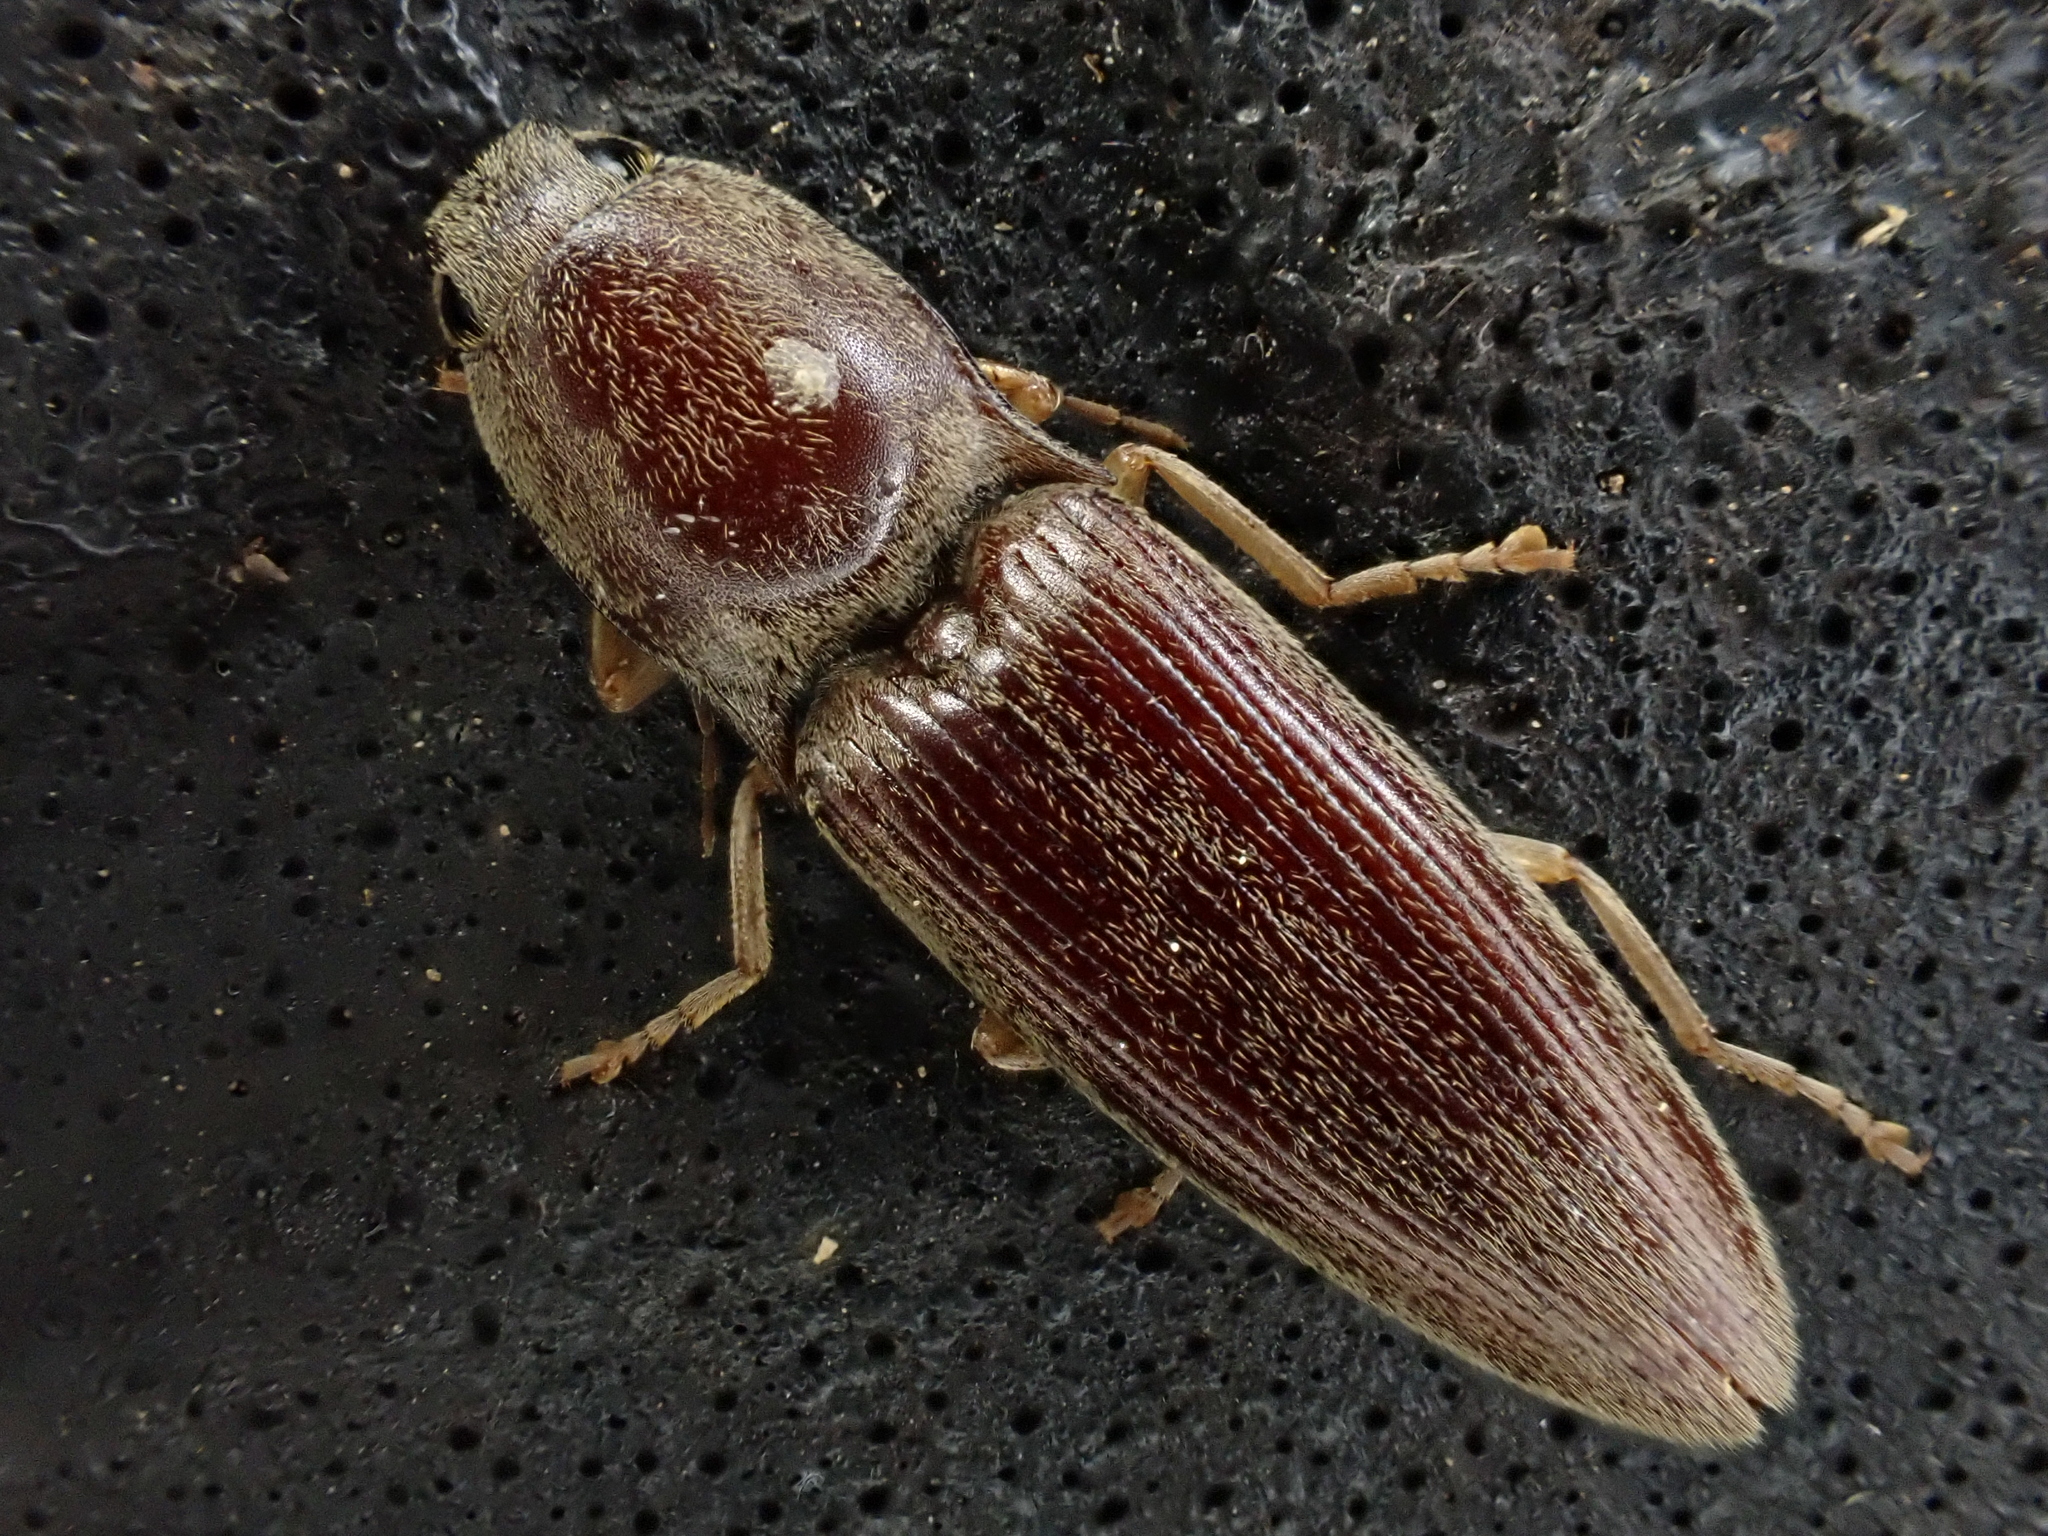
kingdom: Animalia
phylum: Arthropoda
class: Insecta
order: Coleoptera
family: Elateridae
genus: Monocrepidius
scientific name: Monocrepidius lividus
